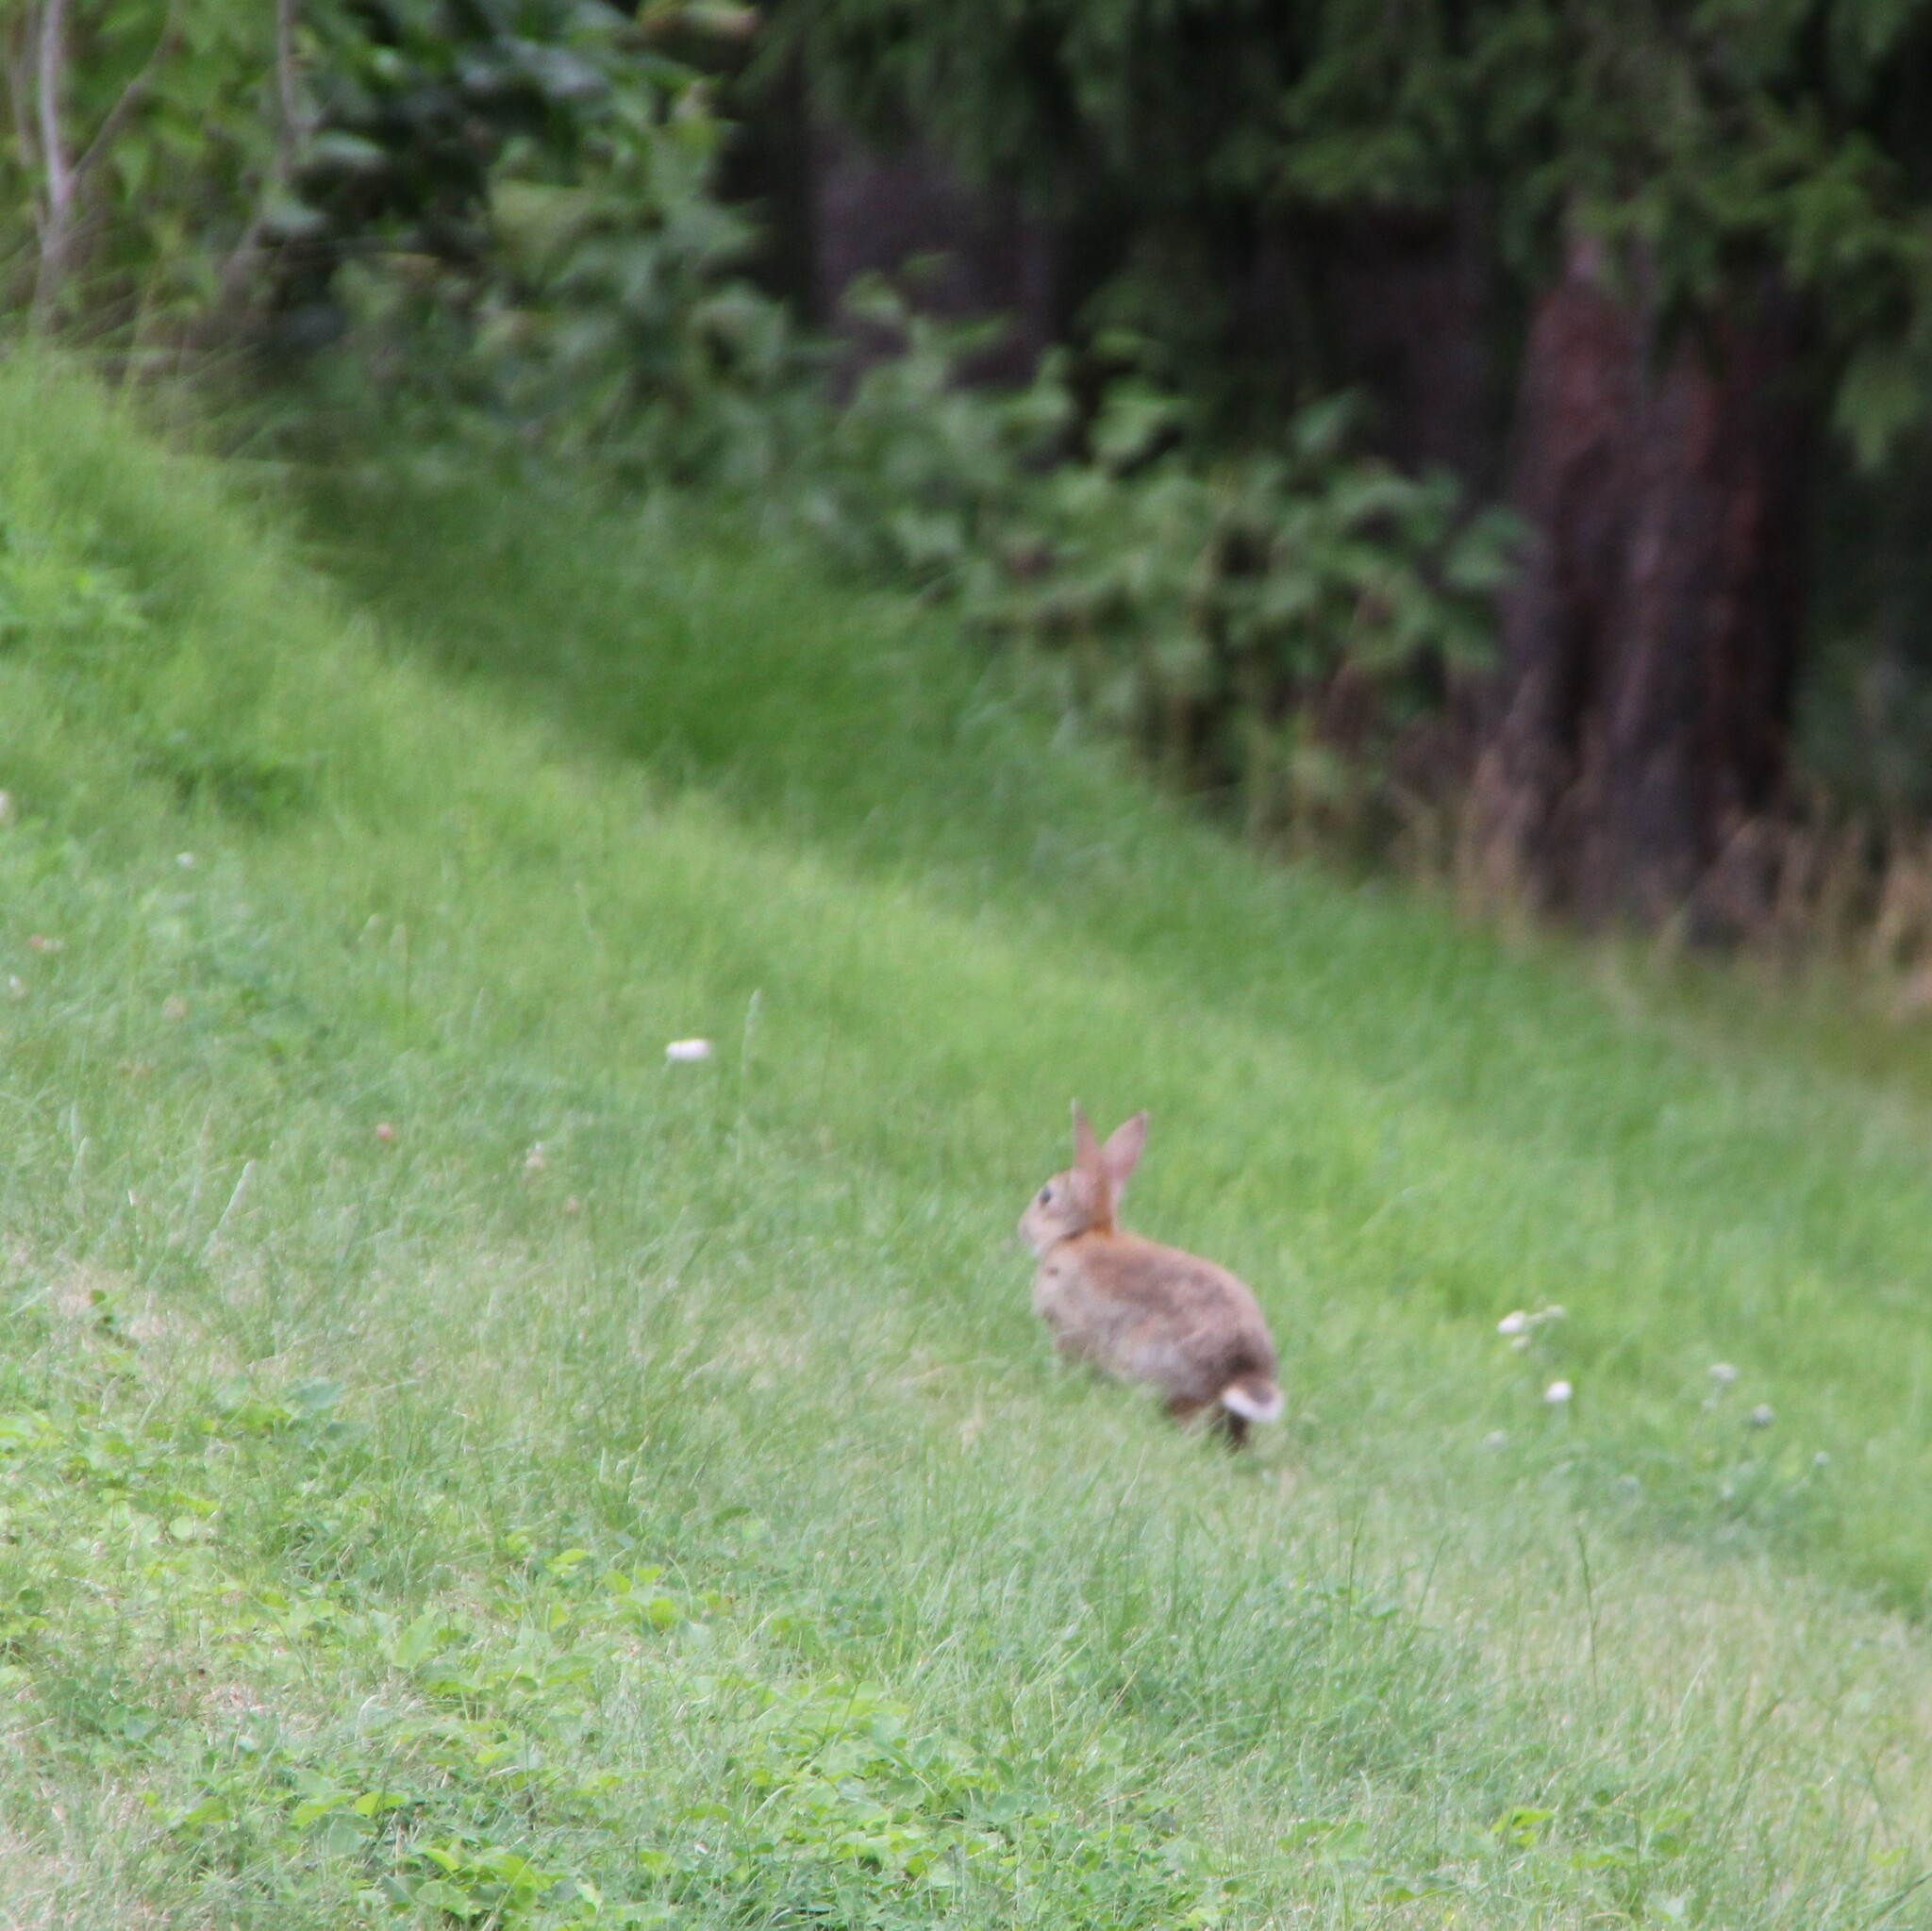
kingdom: Animalia
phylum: Chordata
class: Mammalia
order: Lagomorpha
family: Leporidae
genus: Oryctolagus
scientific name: Oryctolagus cuniculus
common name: European rabbit
